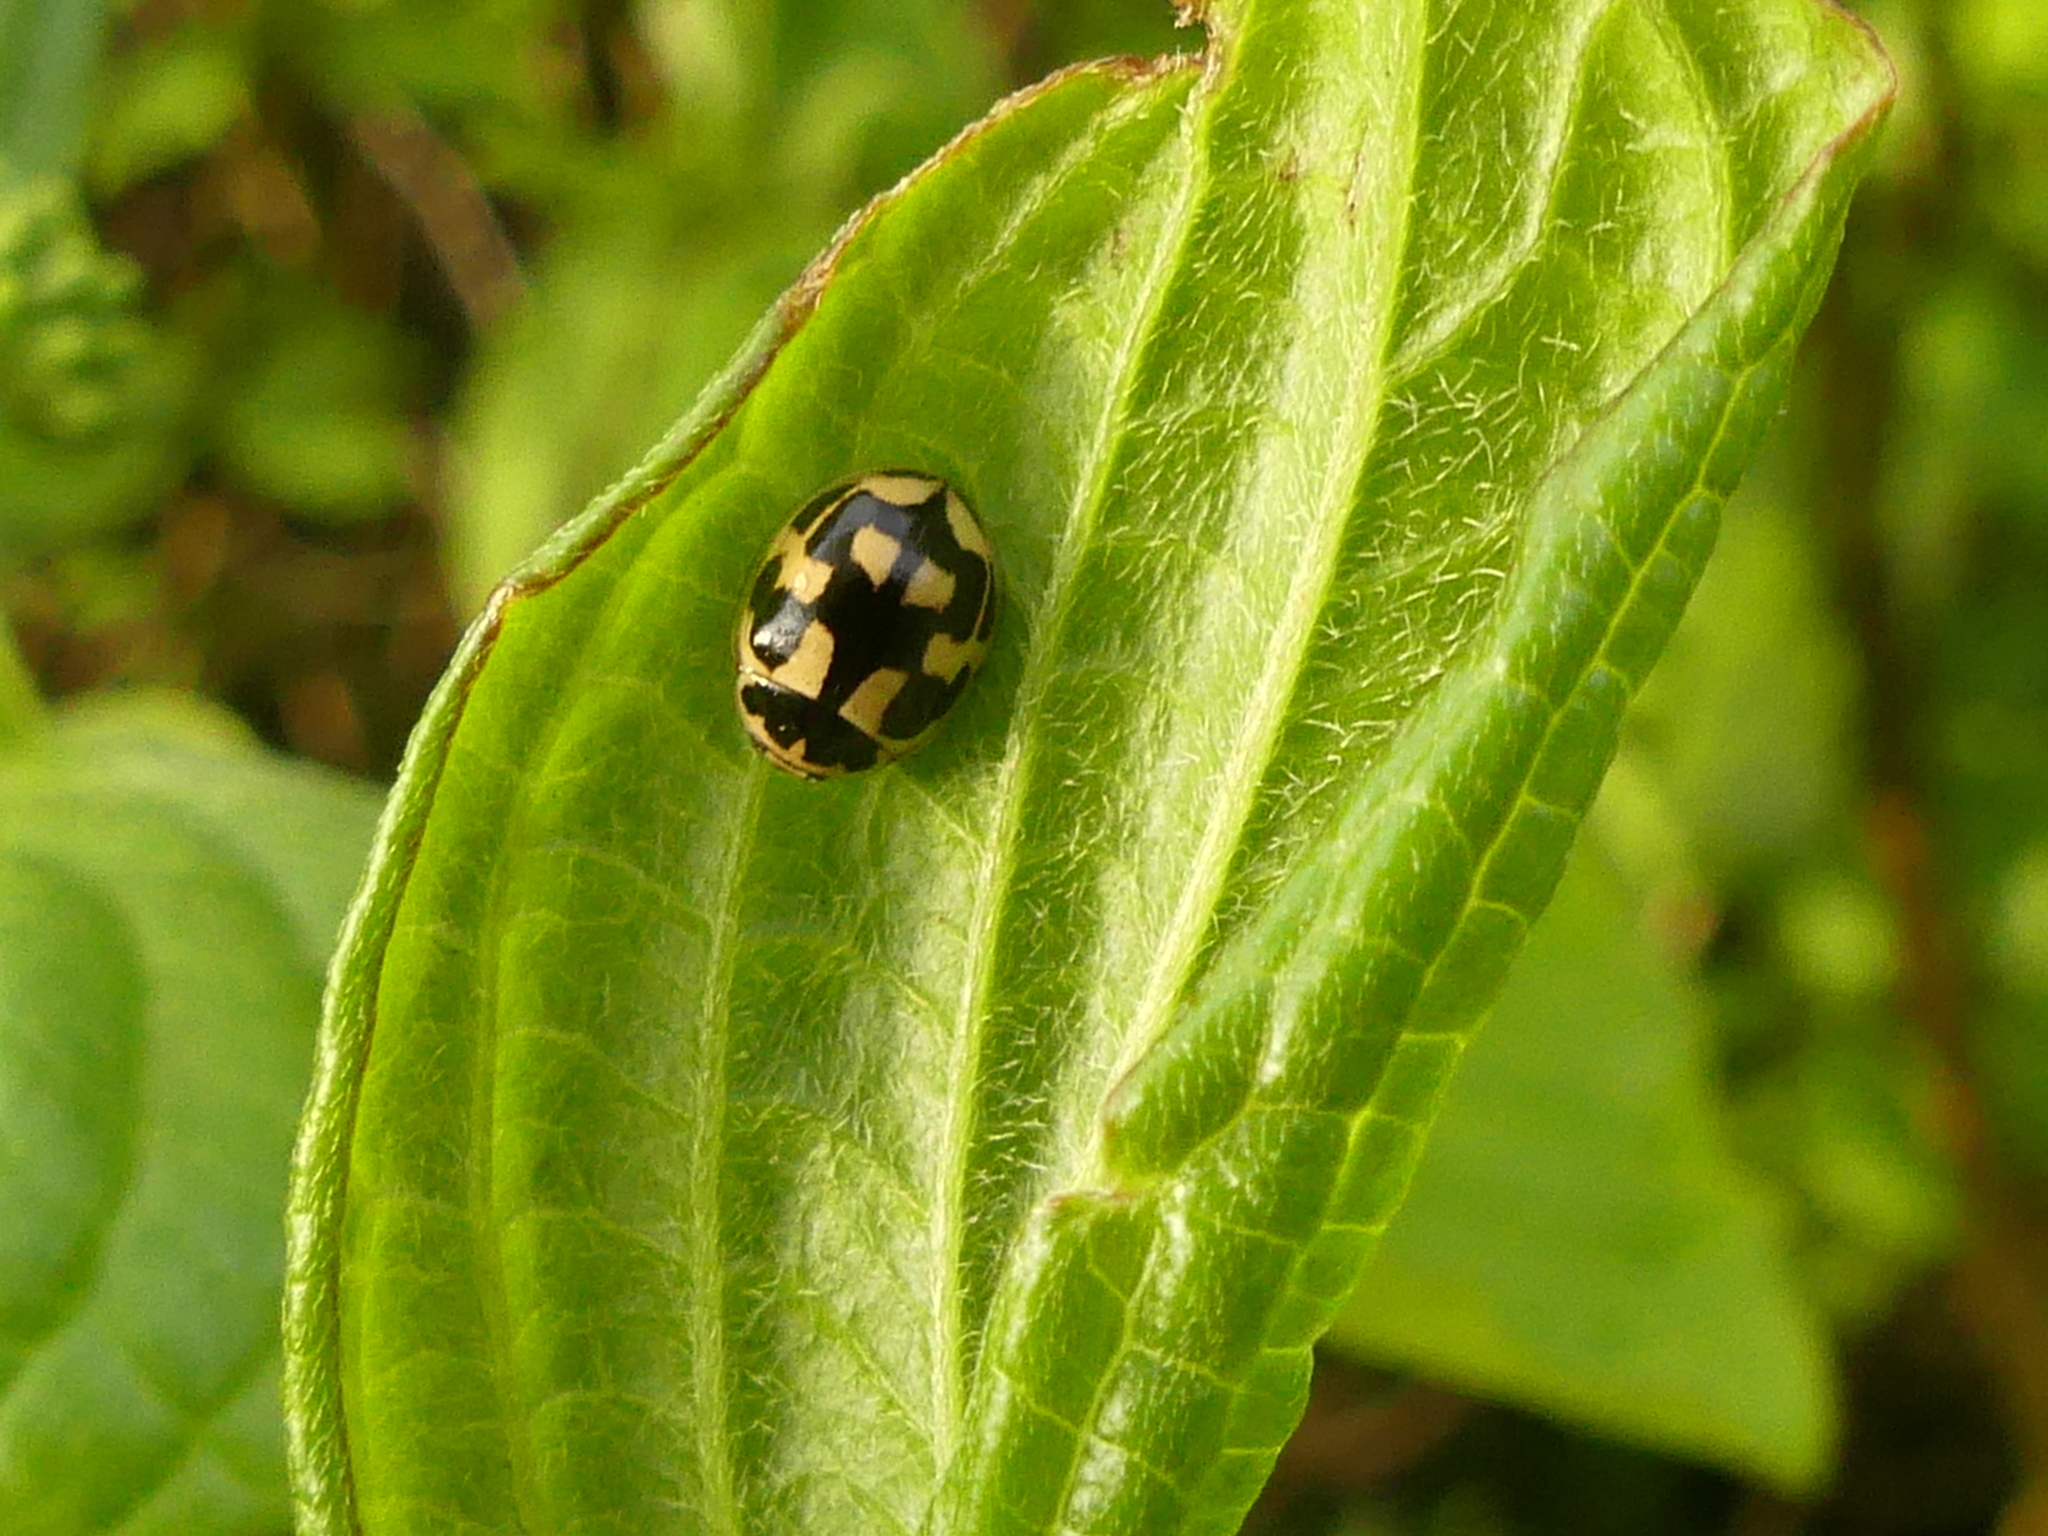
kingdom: Animalia
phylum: Arthropoda
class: Insecta
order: Coleoptera
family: Coccinellidae
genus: Propylaea
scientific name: Propylaea quatuordecimpunctata
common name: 14-spotted ladybird beetle
